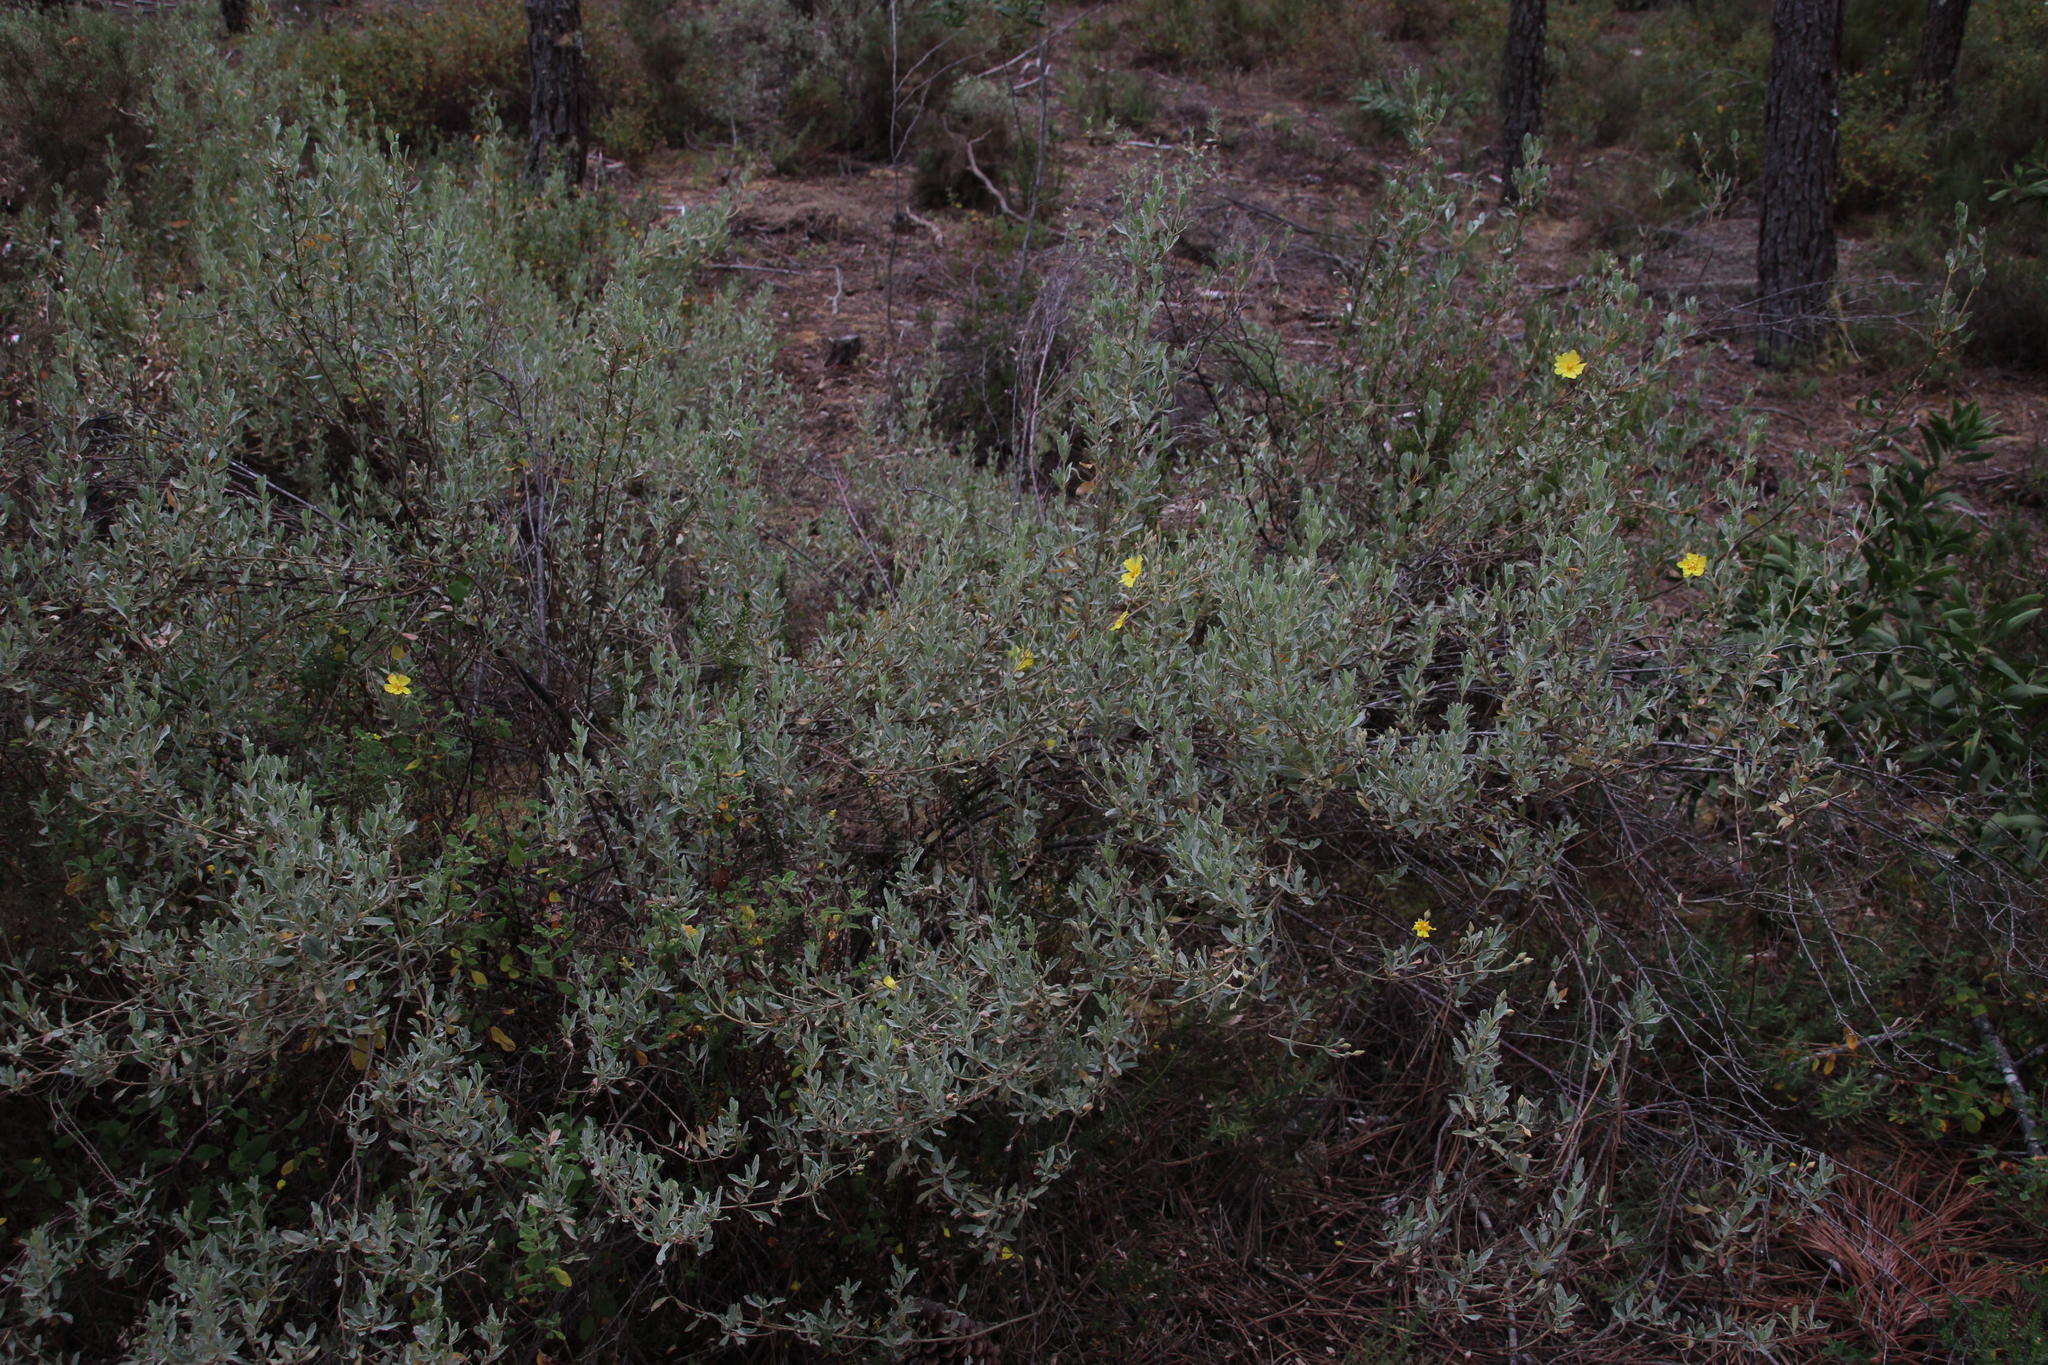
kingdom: Plantae
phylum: Tracheophyta
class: Magnoliopsida
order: Malvales
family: Cistaceae
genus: Halimium
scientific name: Halimium halimifolium
